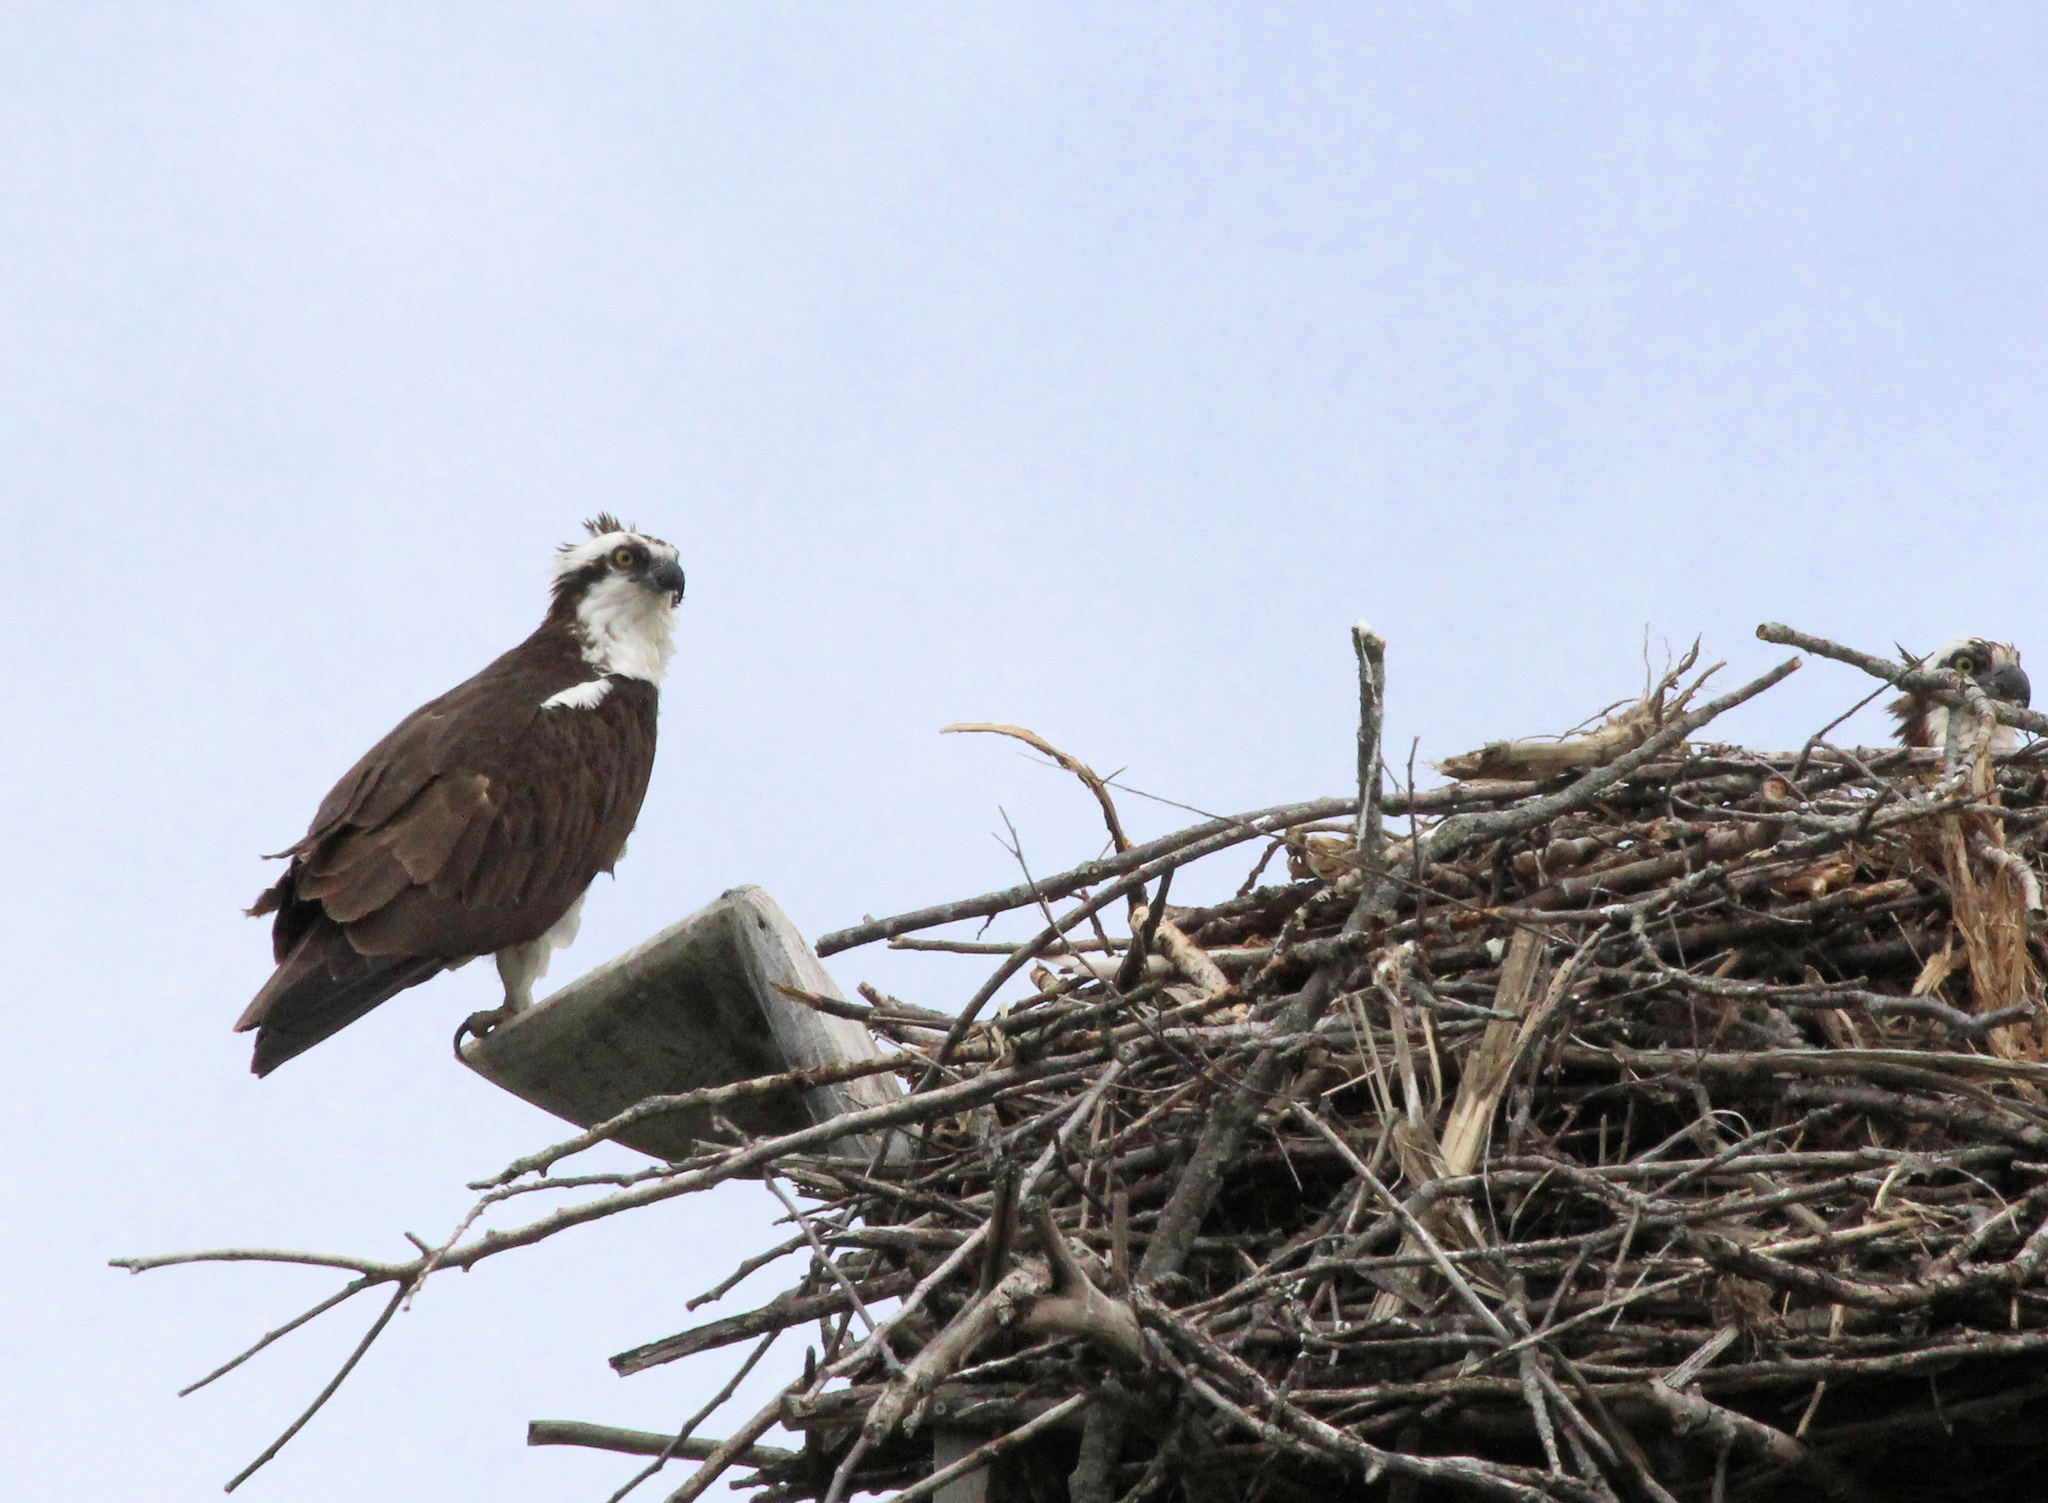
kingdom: Animalia
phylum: Chordata
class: Aves
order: Accipitriformes
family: Pandionidae
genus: Pandion
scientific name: Pandion haliaetus
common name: Osprey
